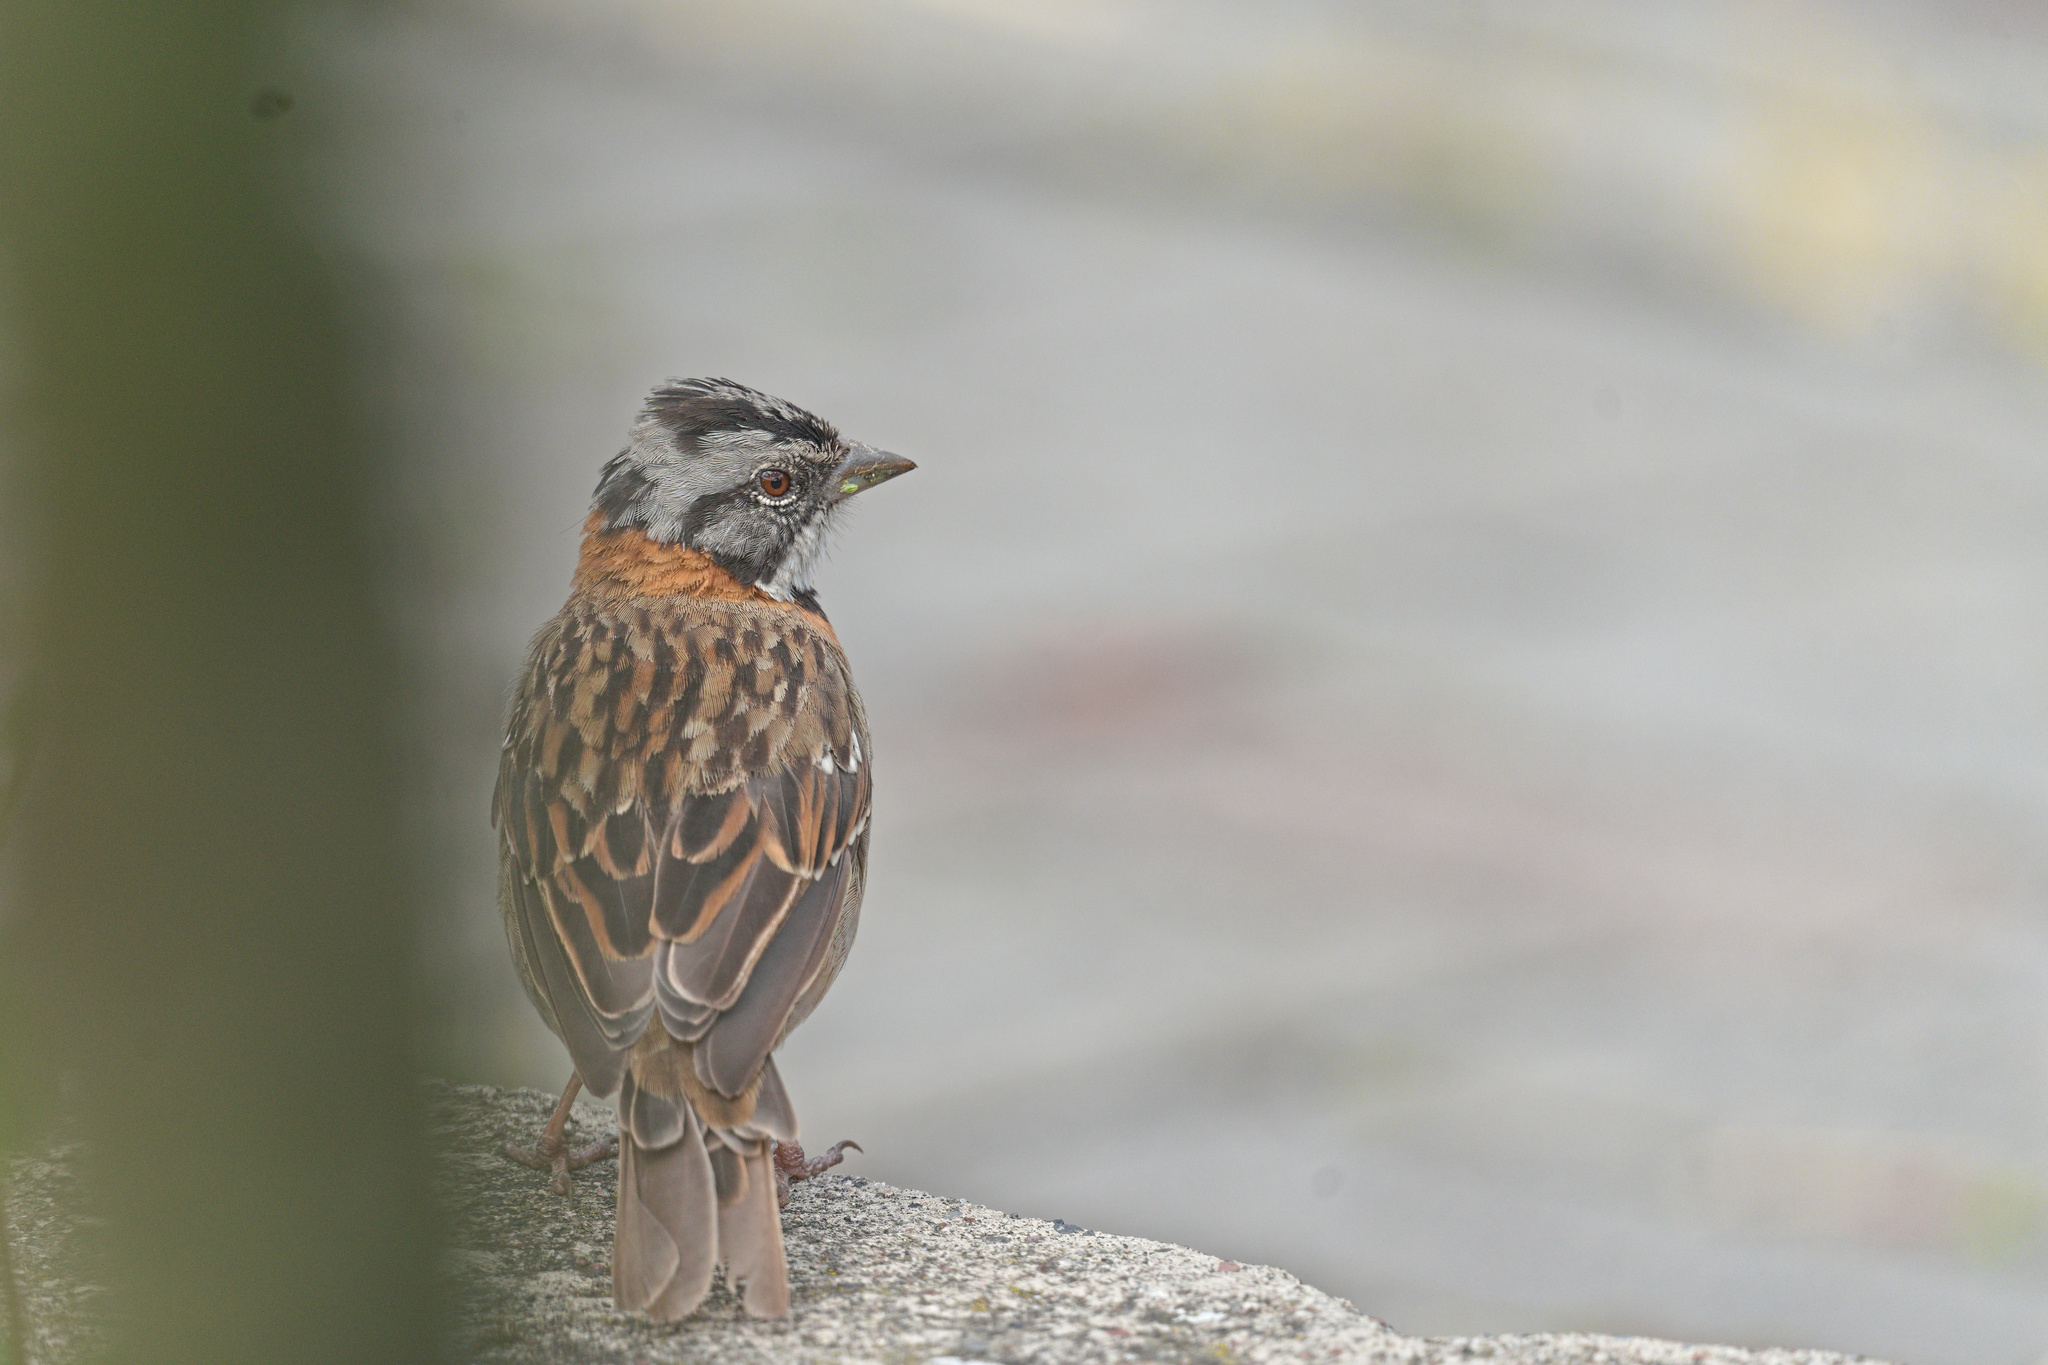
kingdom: Animalia
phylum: Chordata
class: Aves
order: Passeriformes
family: Passerellidae
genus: Zonotrichia
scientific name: Zonotrichia capensis
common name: Rufous-collared sparrow
